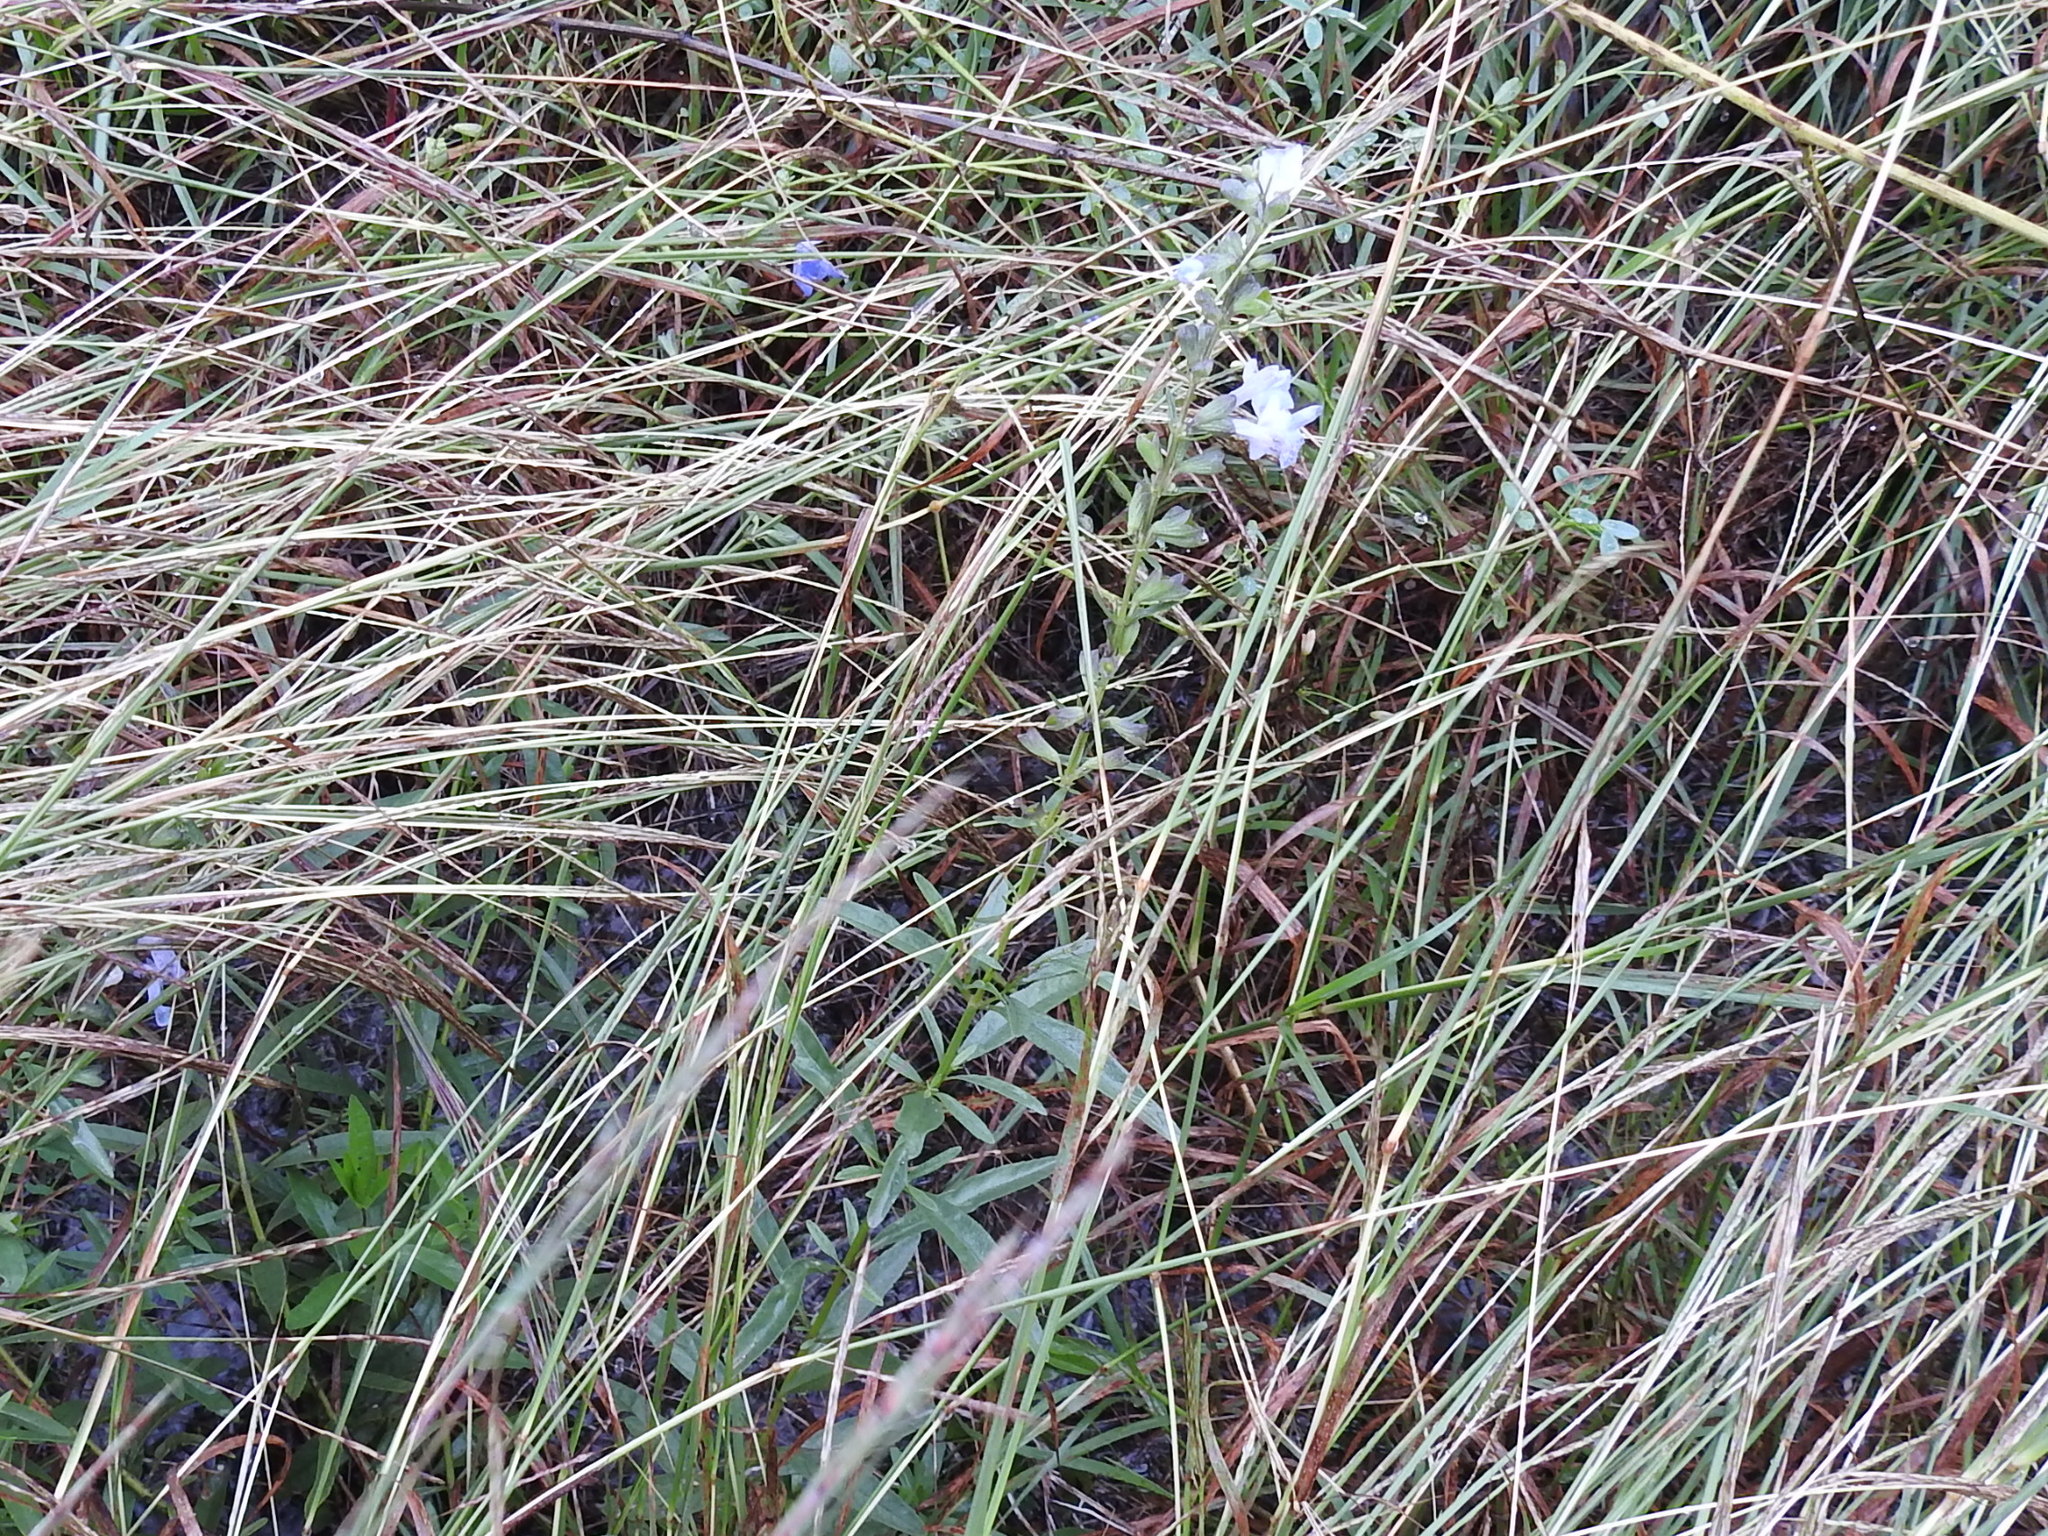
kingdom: Plantae
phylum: Tracheophyta
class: Magnoliopsida
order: Lamiales
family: Lamiaceae
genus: Salvia
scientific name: Salvia azurea
